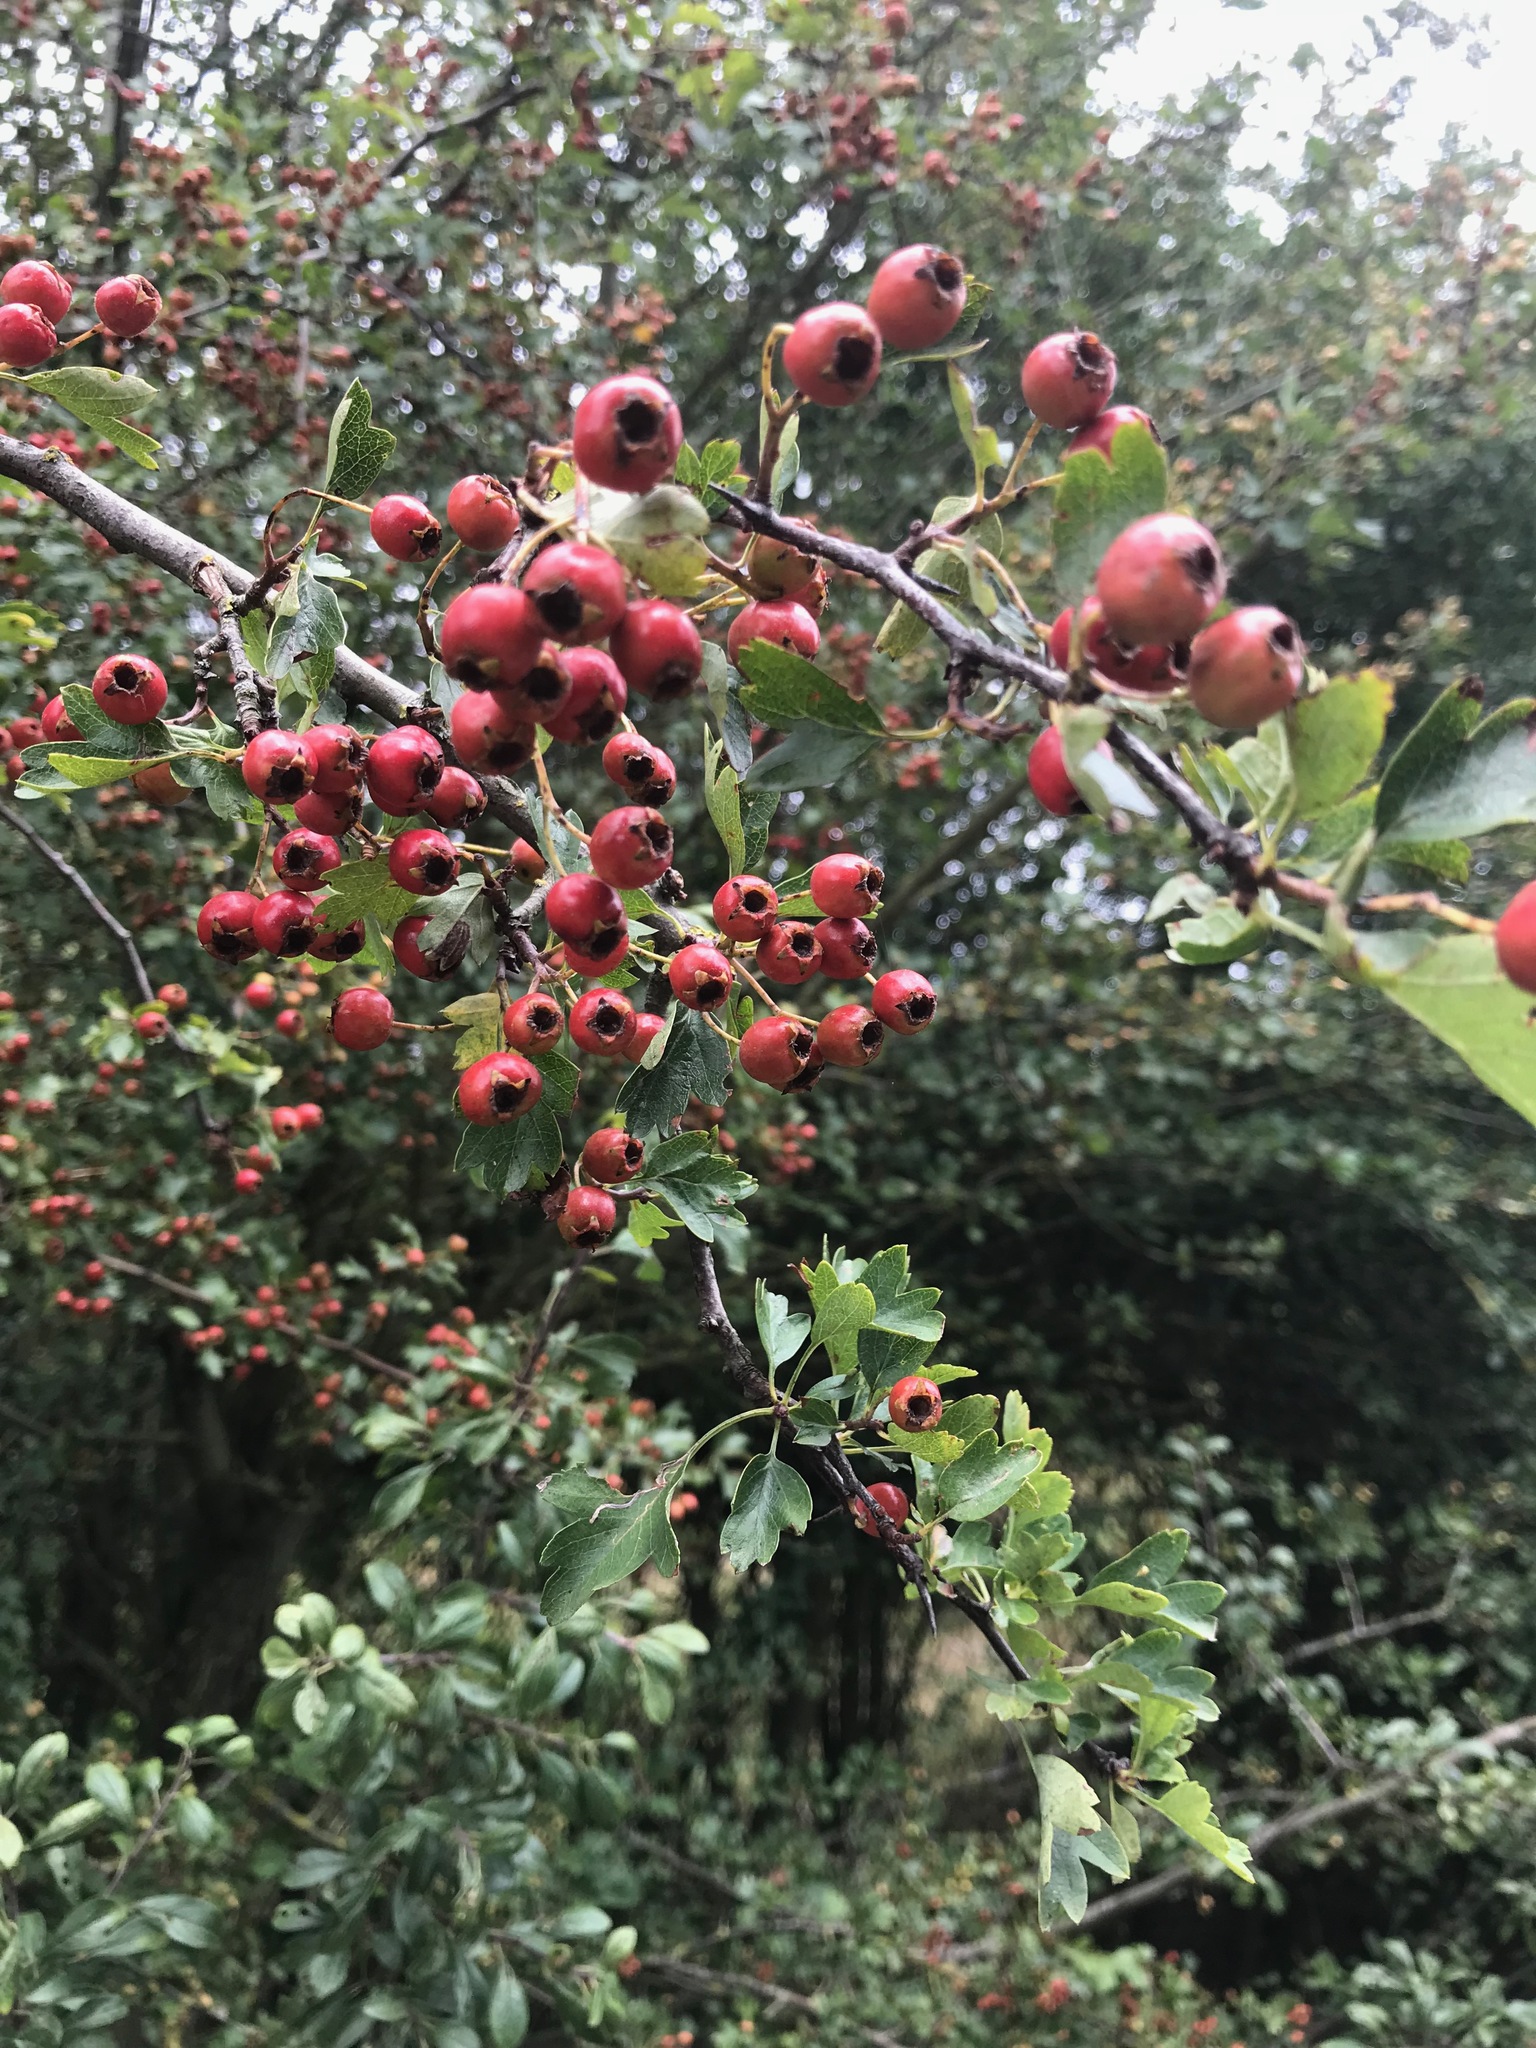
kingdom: Plantae
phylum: Tracheophyta
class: Magnoliopsida
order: Rosales
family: Rosaceae
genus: Crataegus
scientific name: Crataegus monogyna
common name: Hawthorn
